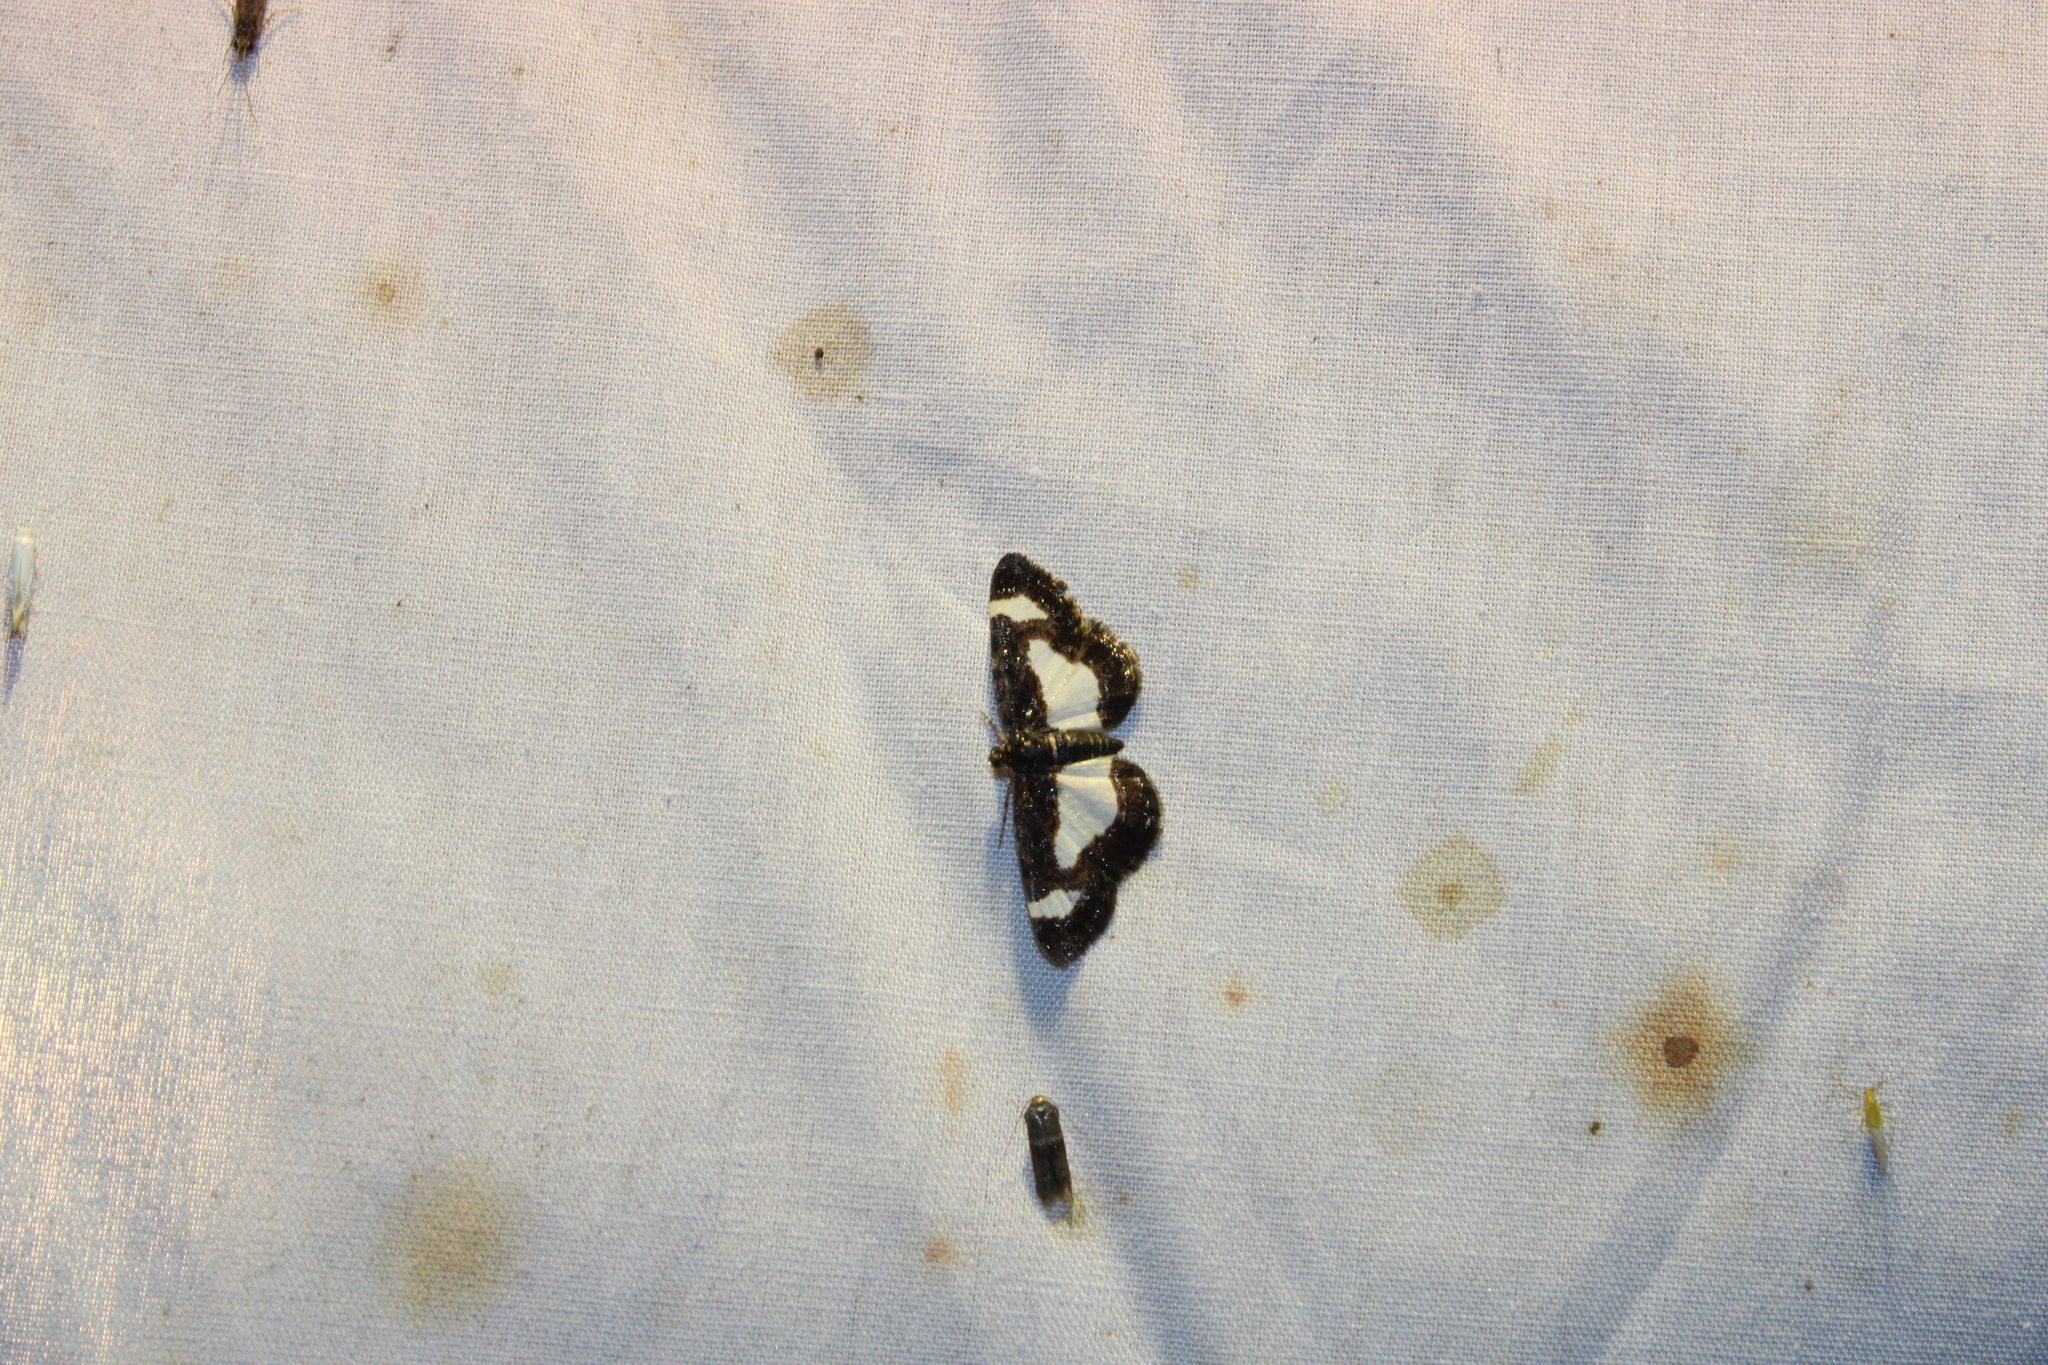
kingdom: Animalia
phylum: Arthropoda
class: Insecta
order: Lepidoptera
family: Geometridae
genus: Heliomata
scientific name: Heliomata cycladata
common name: Common spring moth
